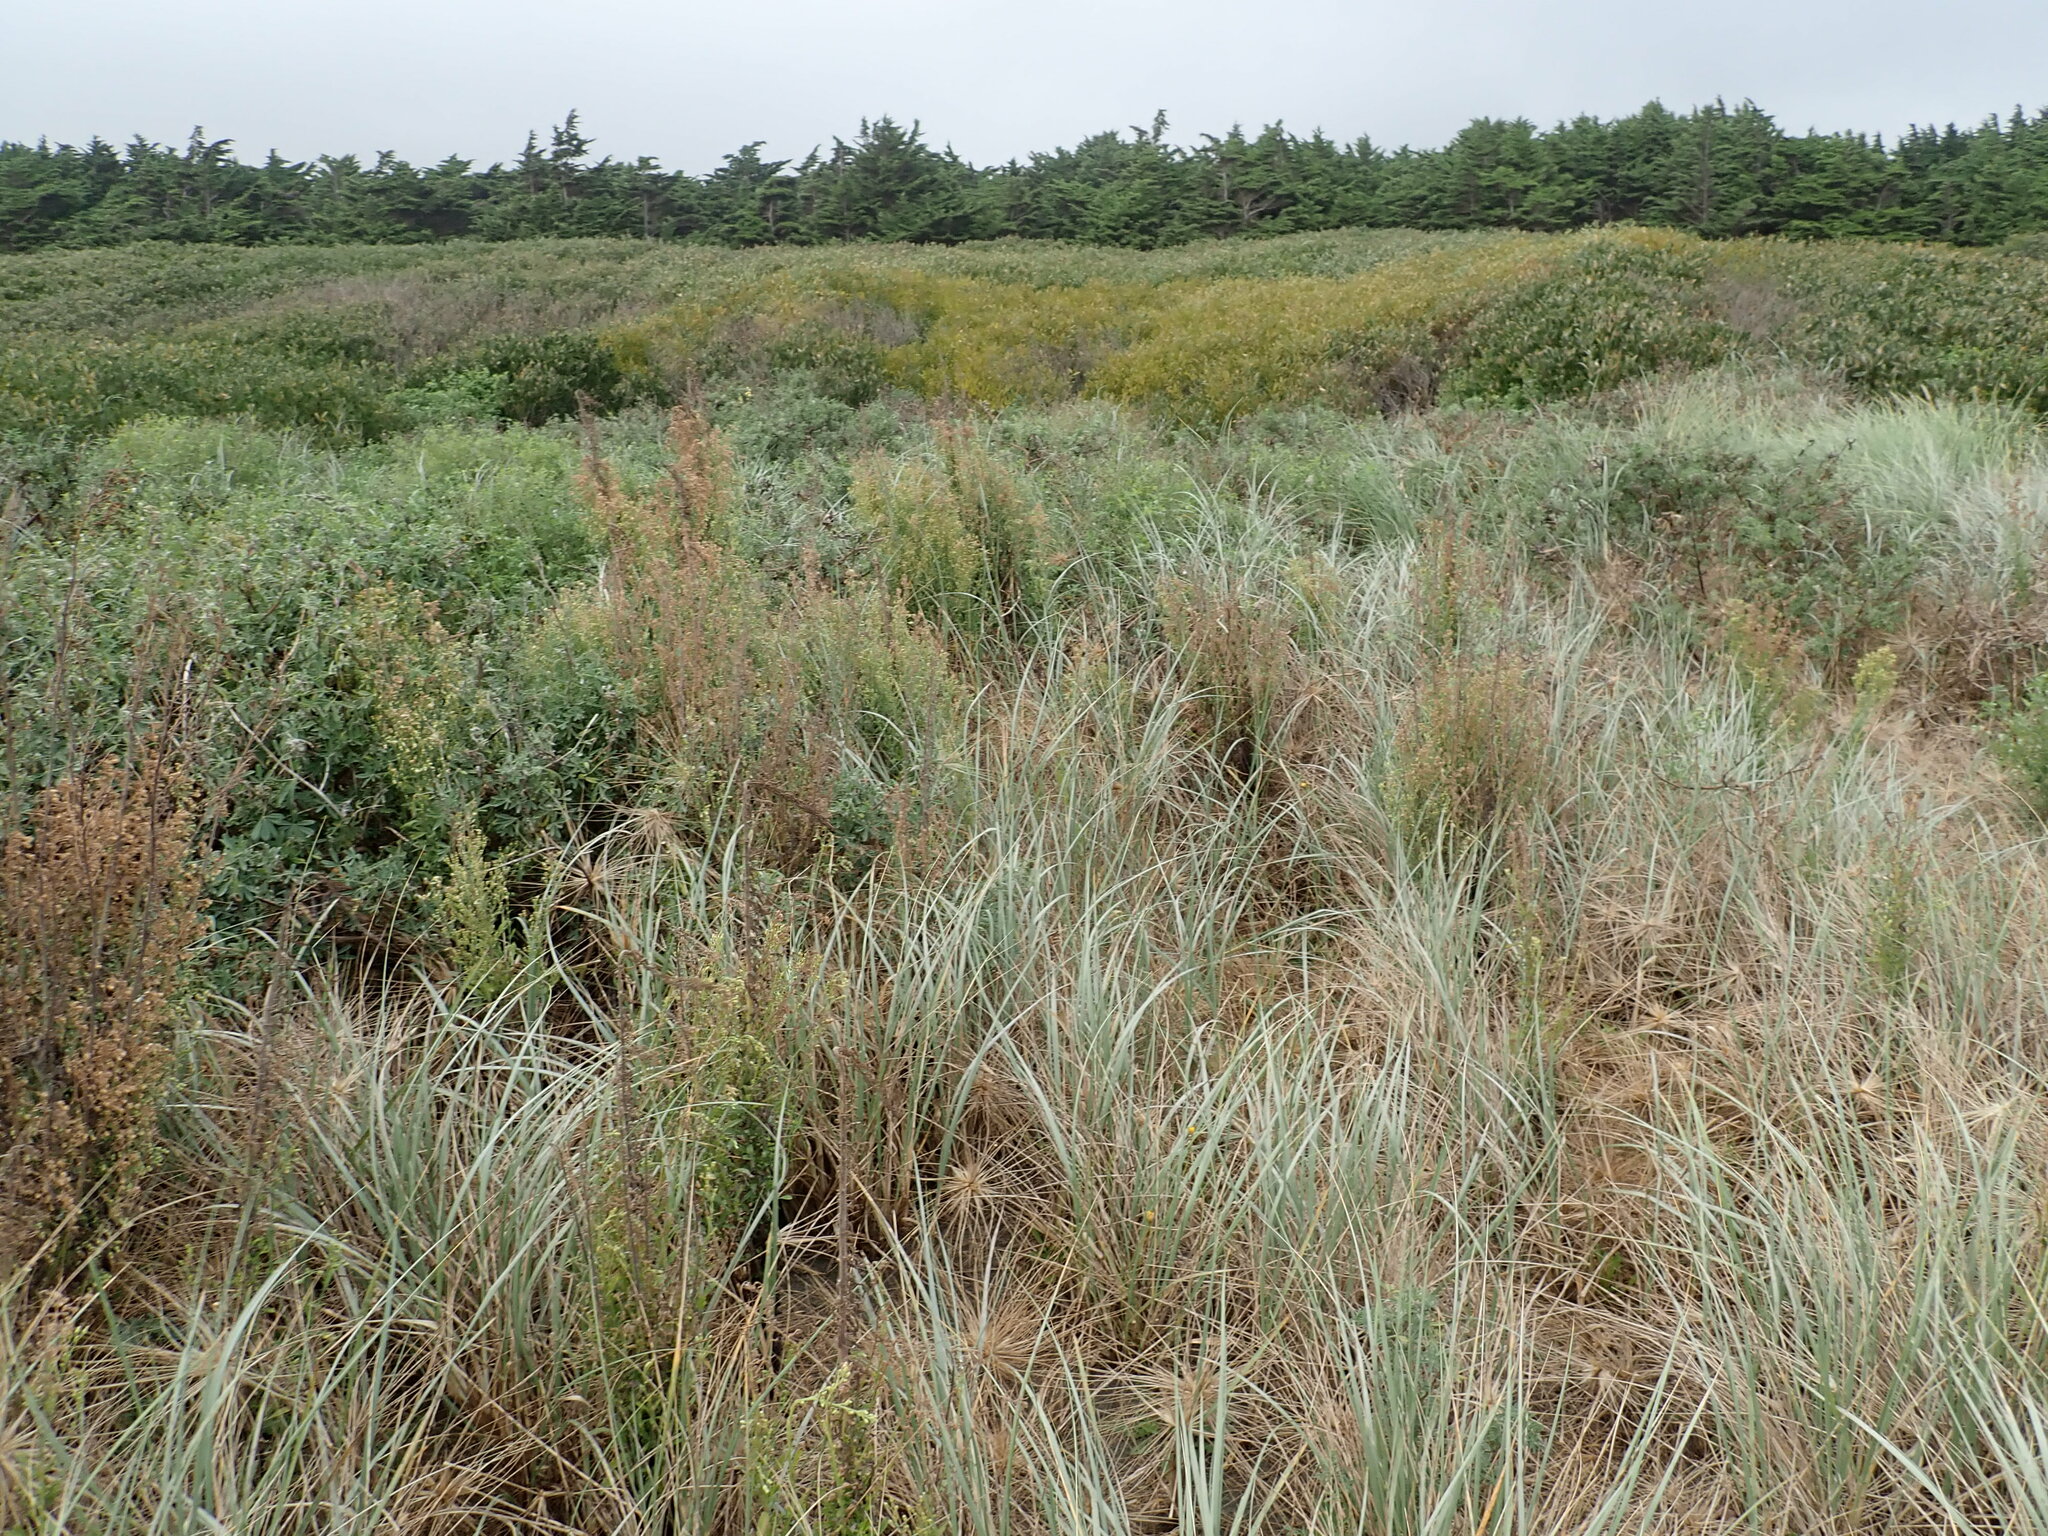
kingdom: Plantae
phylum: Tracheophyta
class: Magnoliopsida
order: Asterales
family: Asteraceae
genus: Erigeron
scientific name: Erigeron sumatrensis
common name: Daisy
